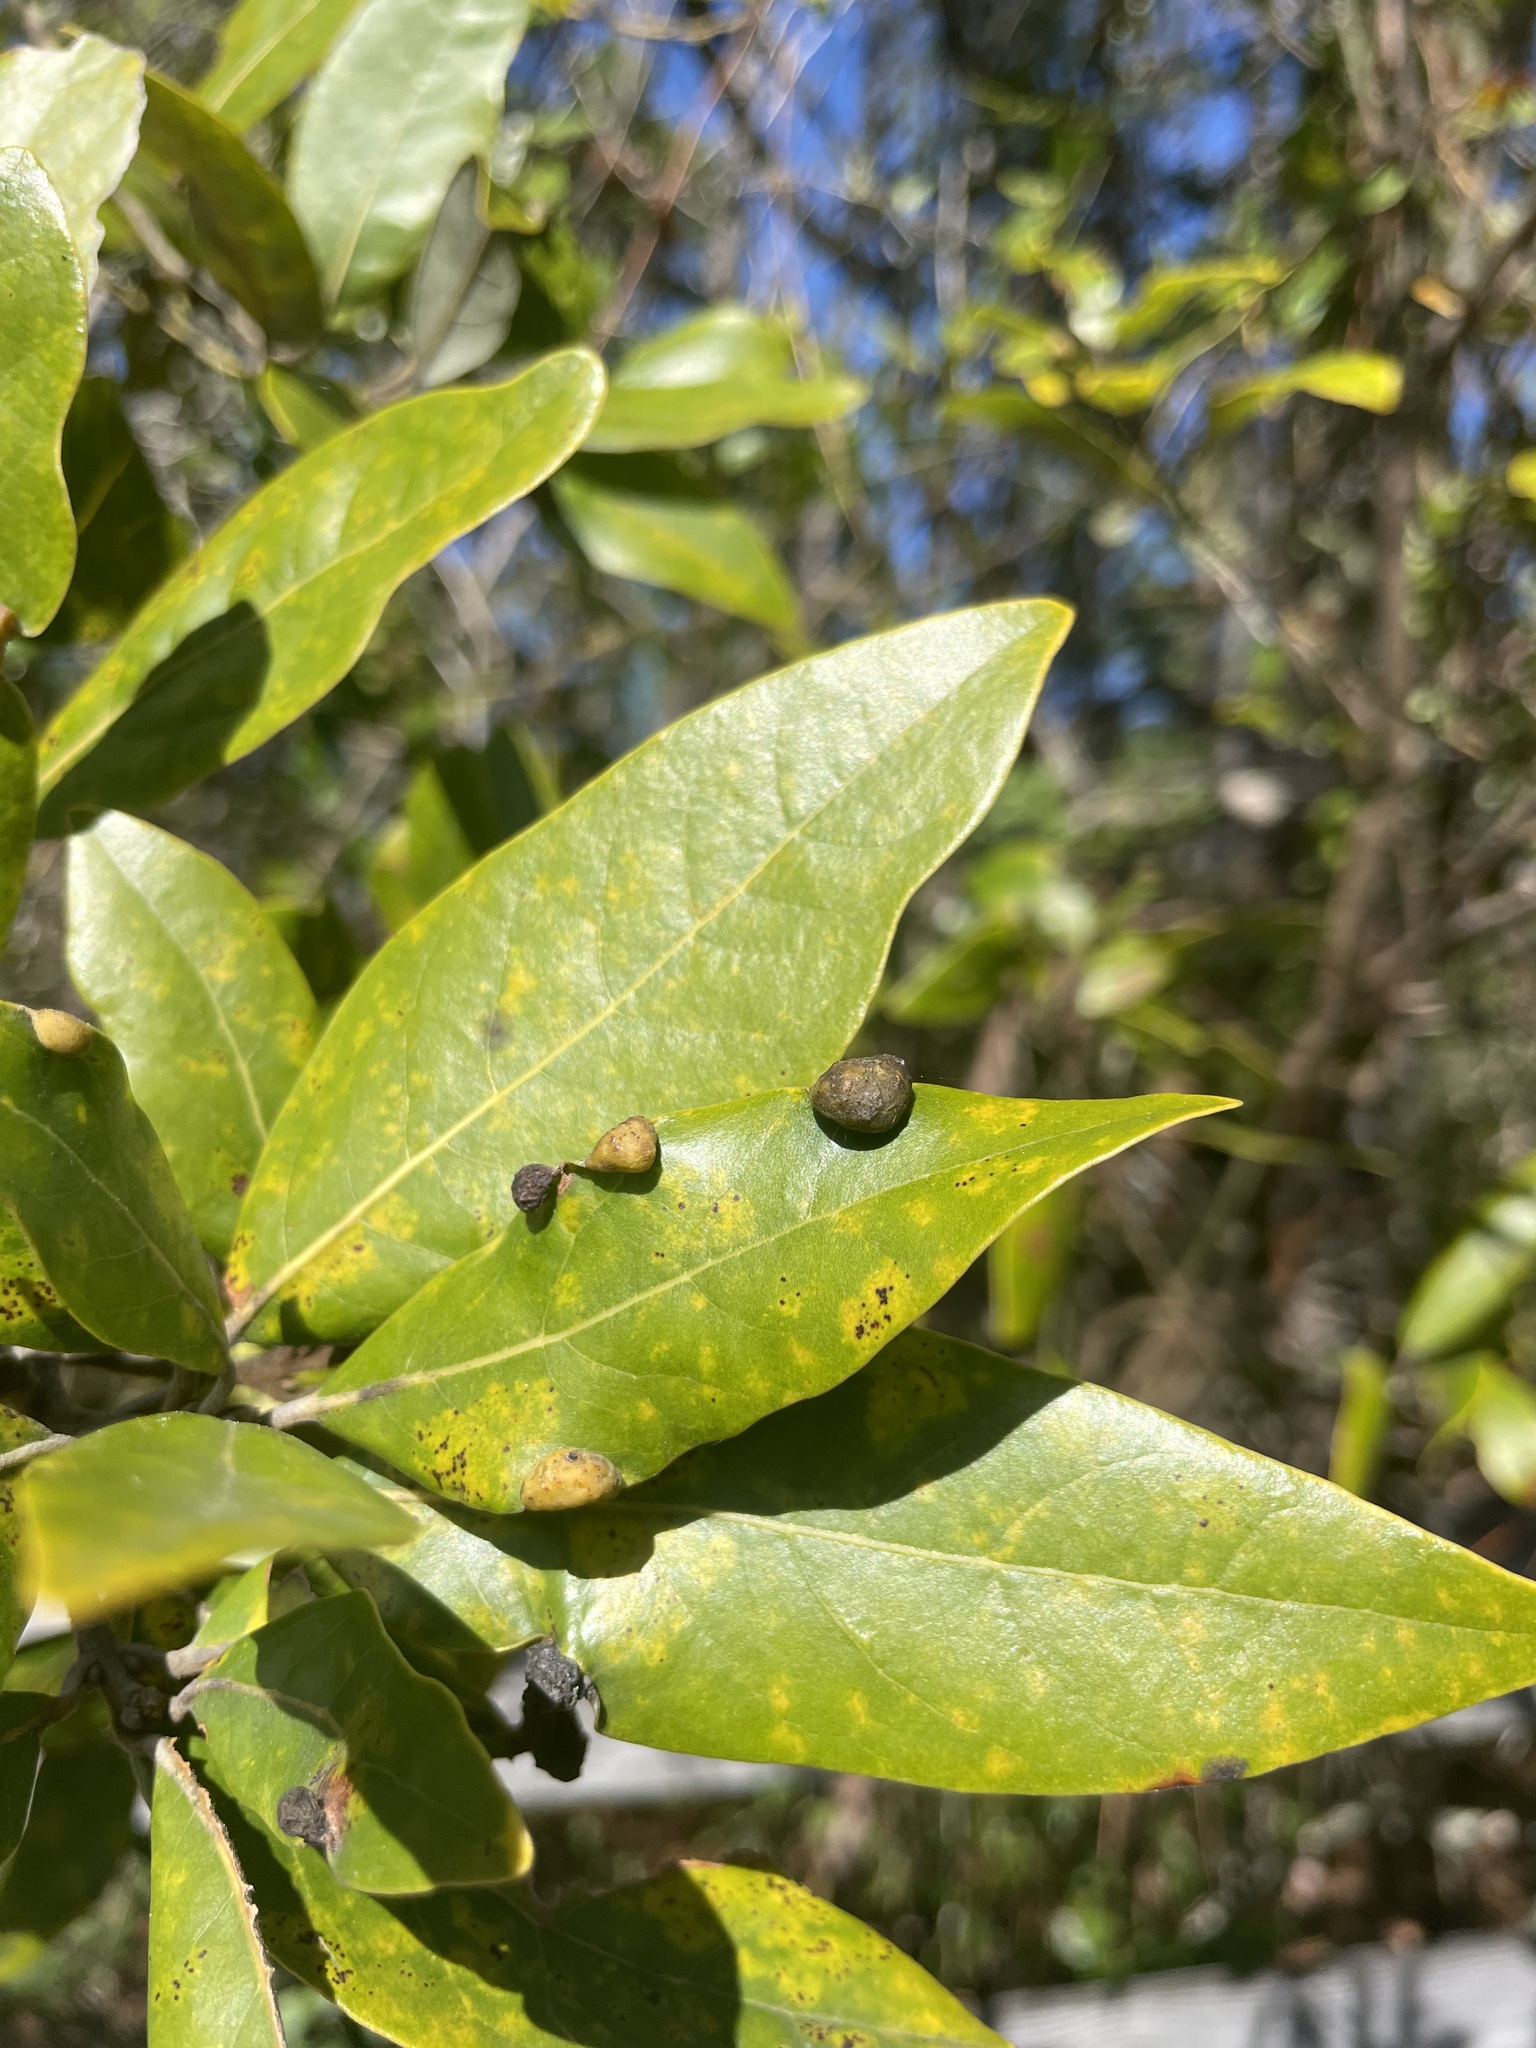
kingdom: Plantae
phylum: Tracheophyta
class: Magnoliopsida
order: Laurales
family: Lauraceae
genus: Persea
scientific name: Persea borbonia
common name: Redbay
